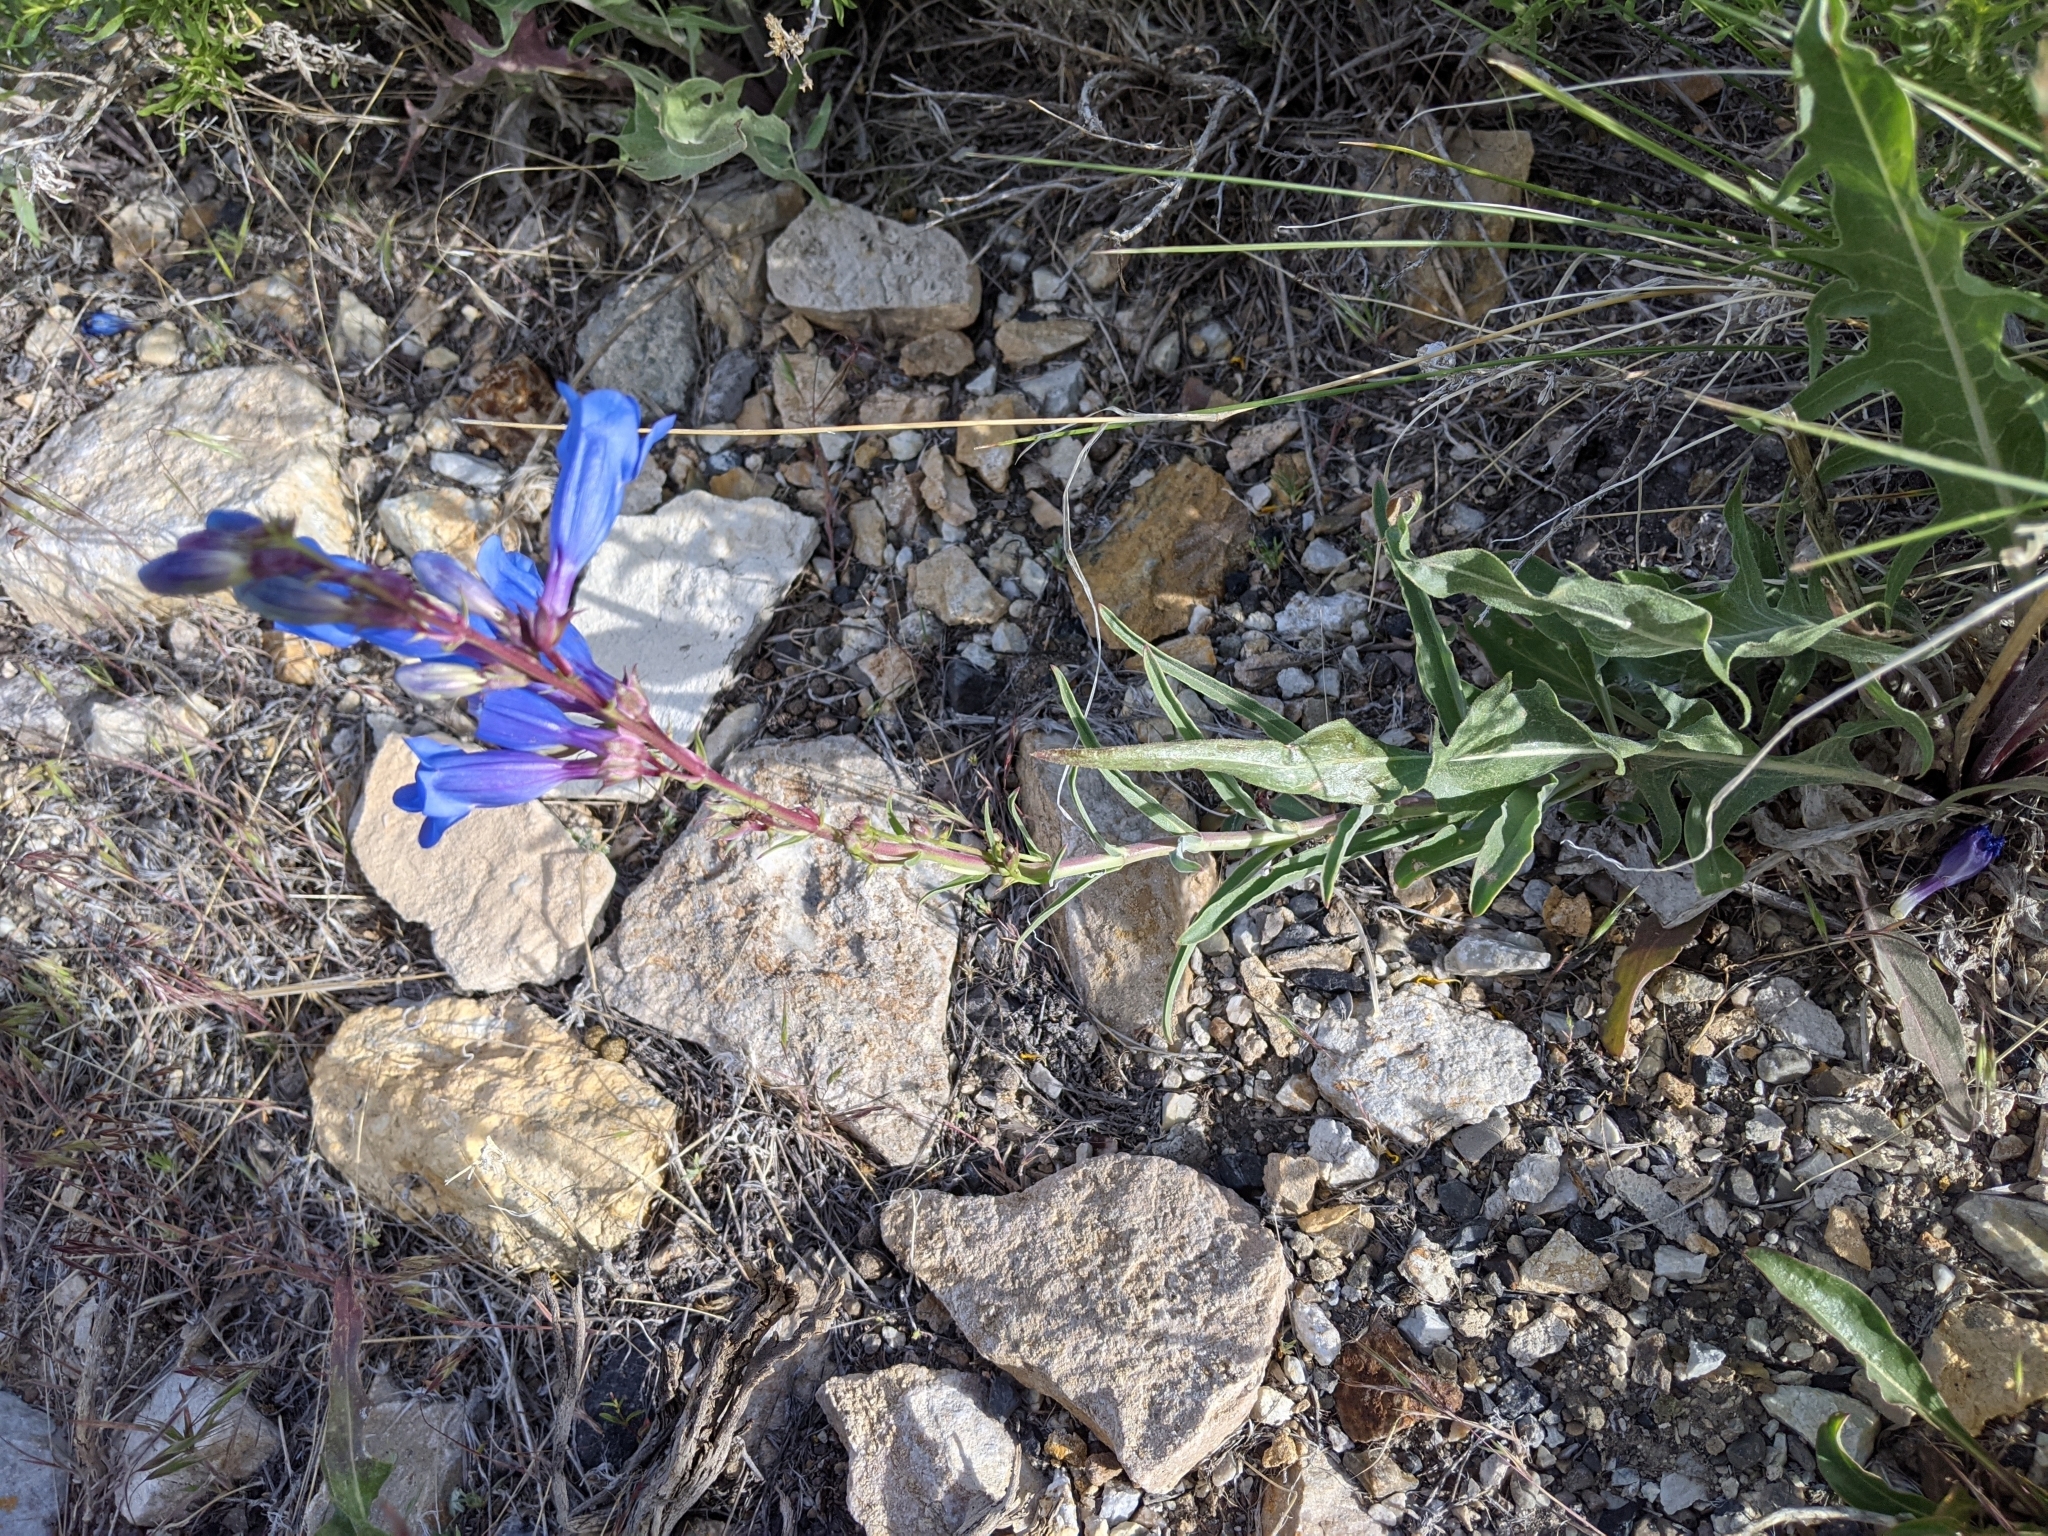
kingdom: Plantae
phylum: Tracheophyta
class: Magnoliopsida
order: Lamiales
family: Plantaginaceae
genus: Penstemon
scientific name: Penstemon speciosus
